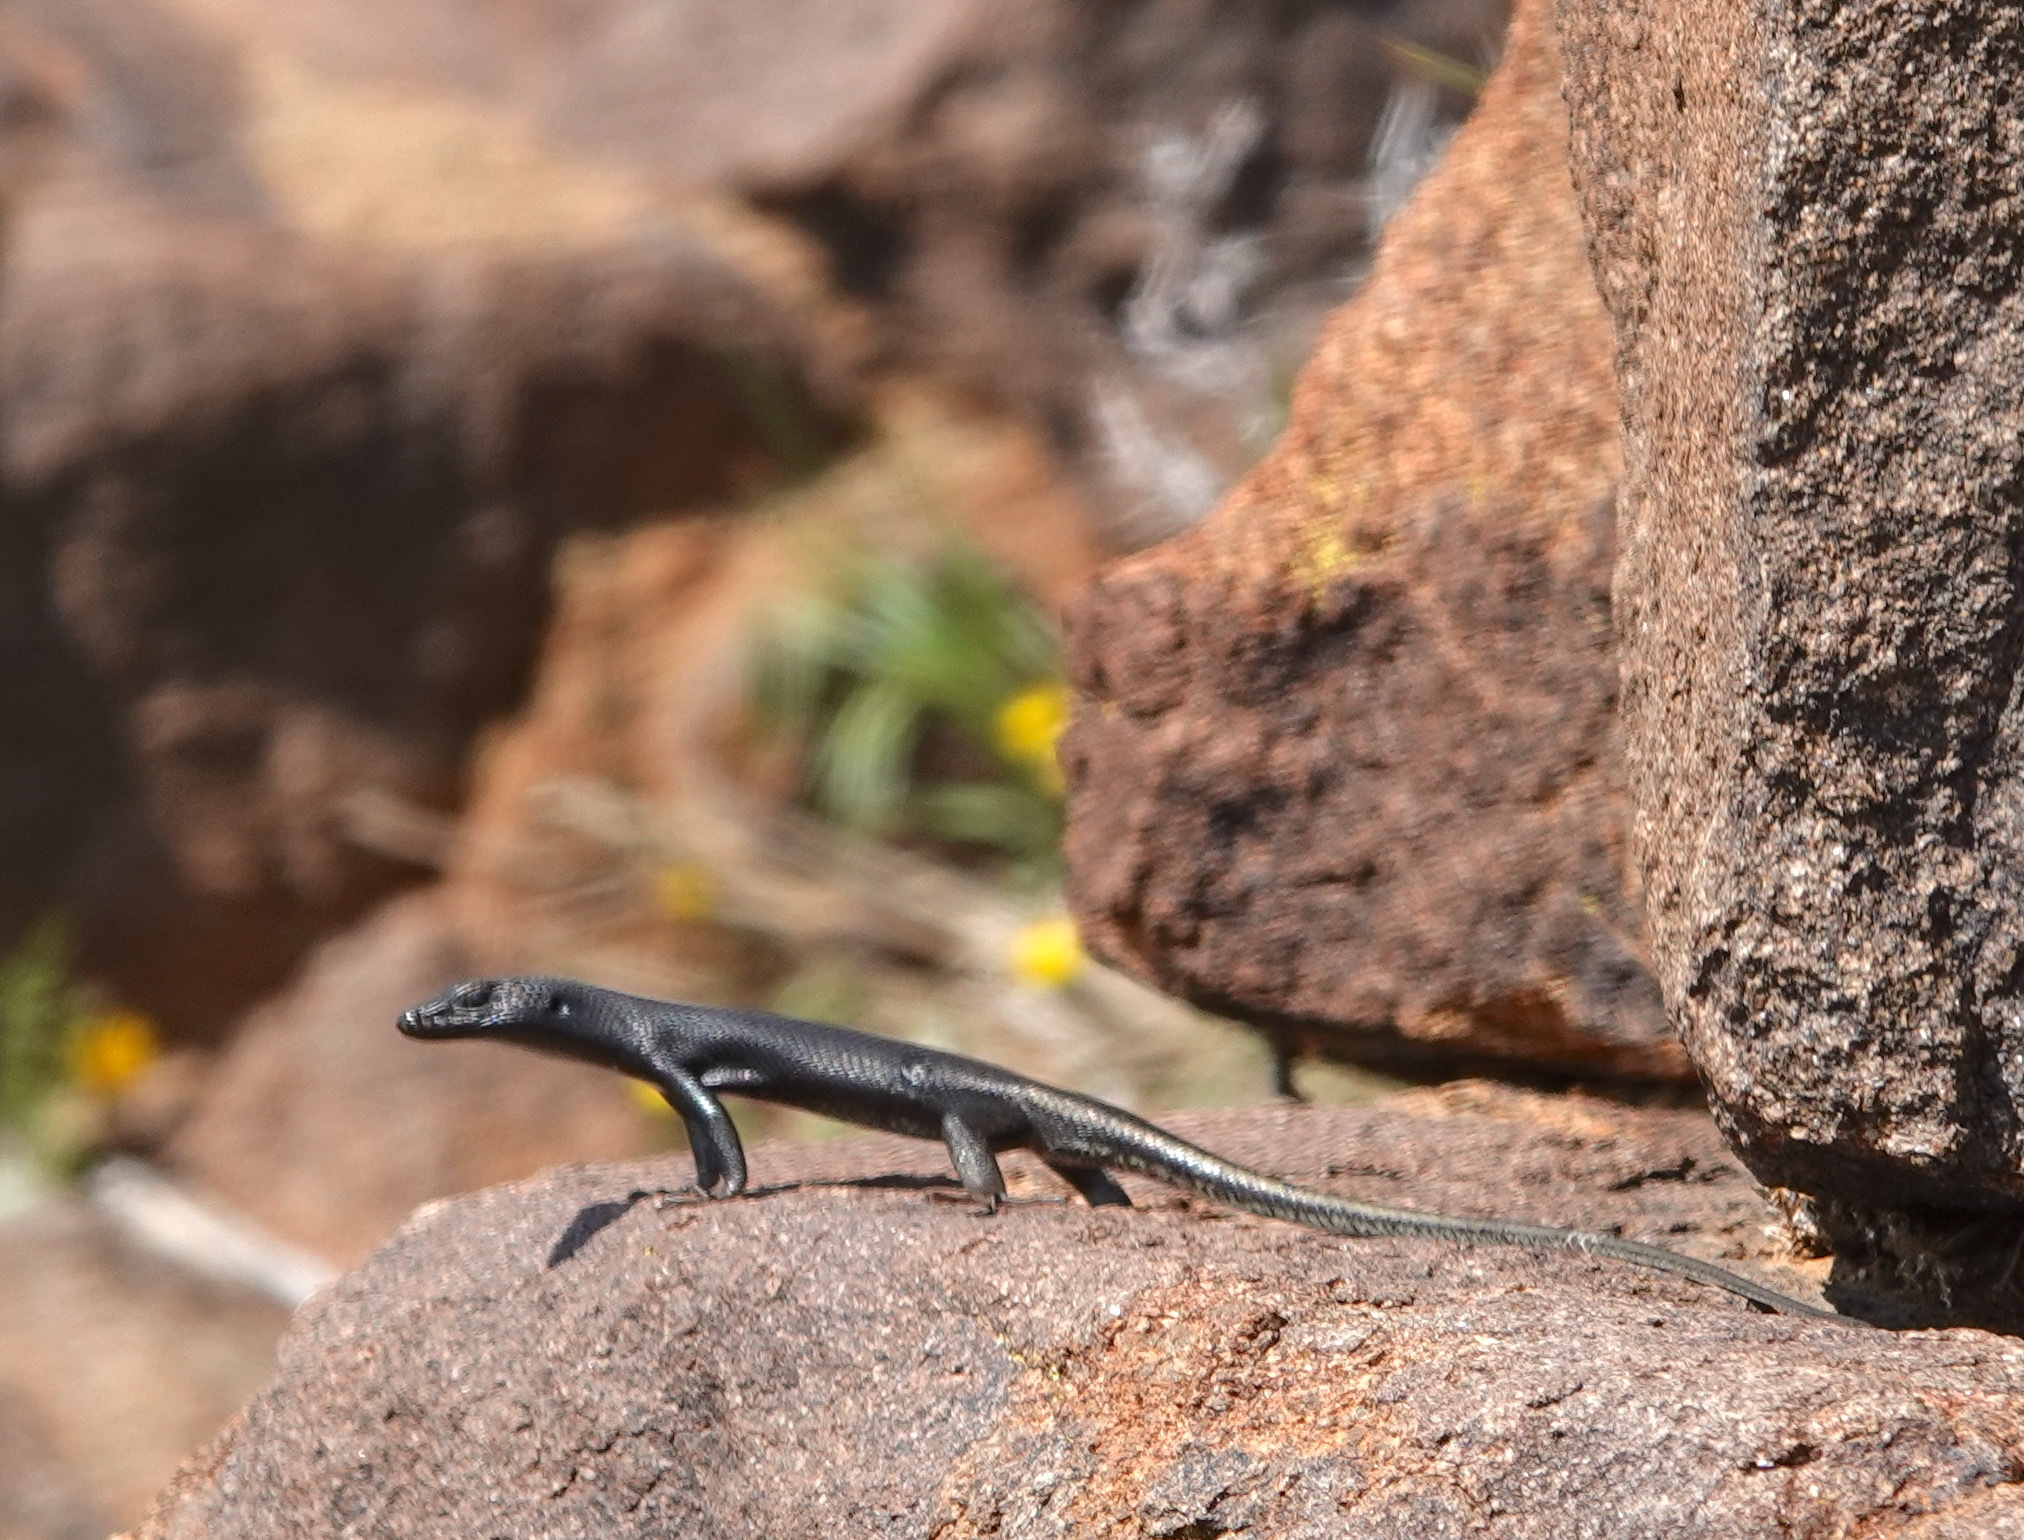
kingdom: Animalia
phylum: Chordata
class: Squamata
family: Scincidae
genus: Trachylepis
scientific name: Trachylepis sulcata
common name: Western rock skink
